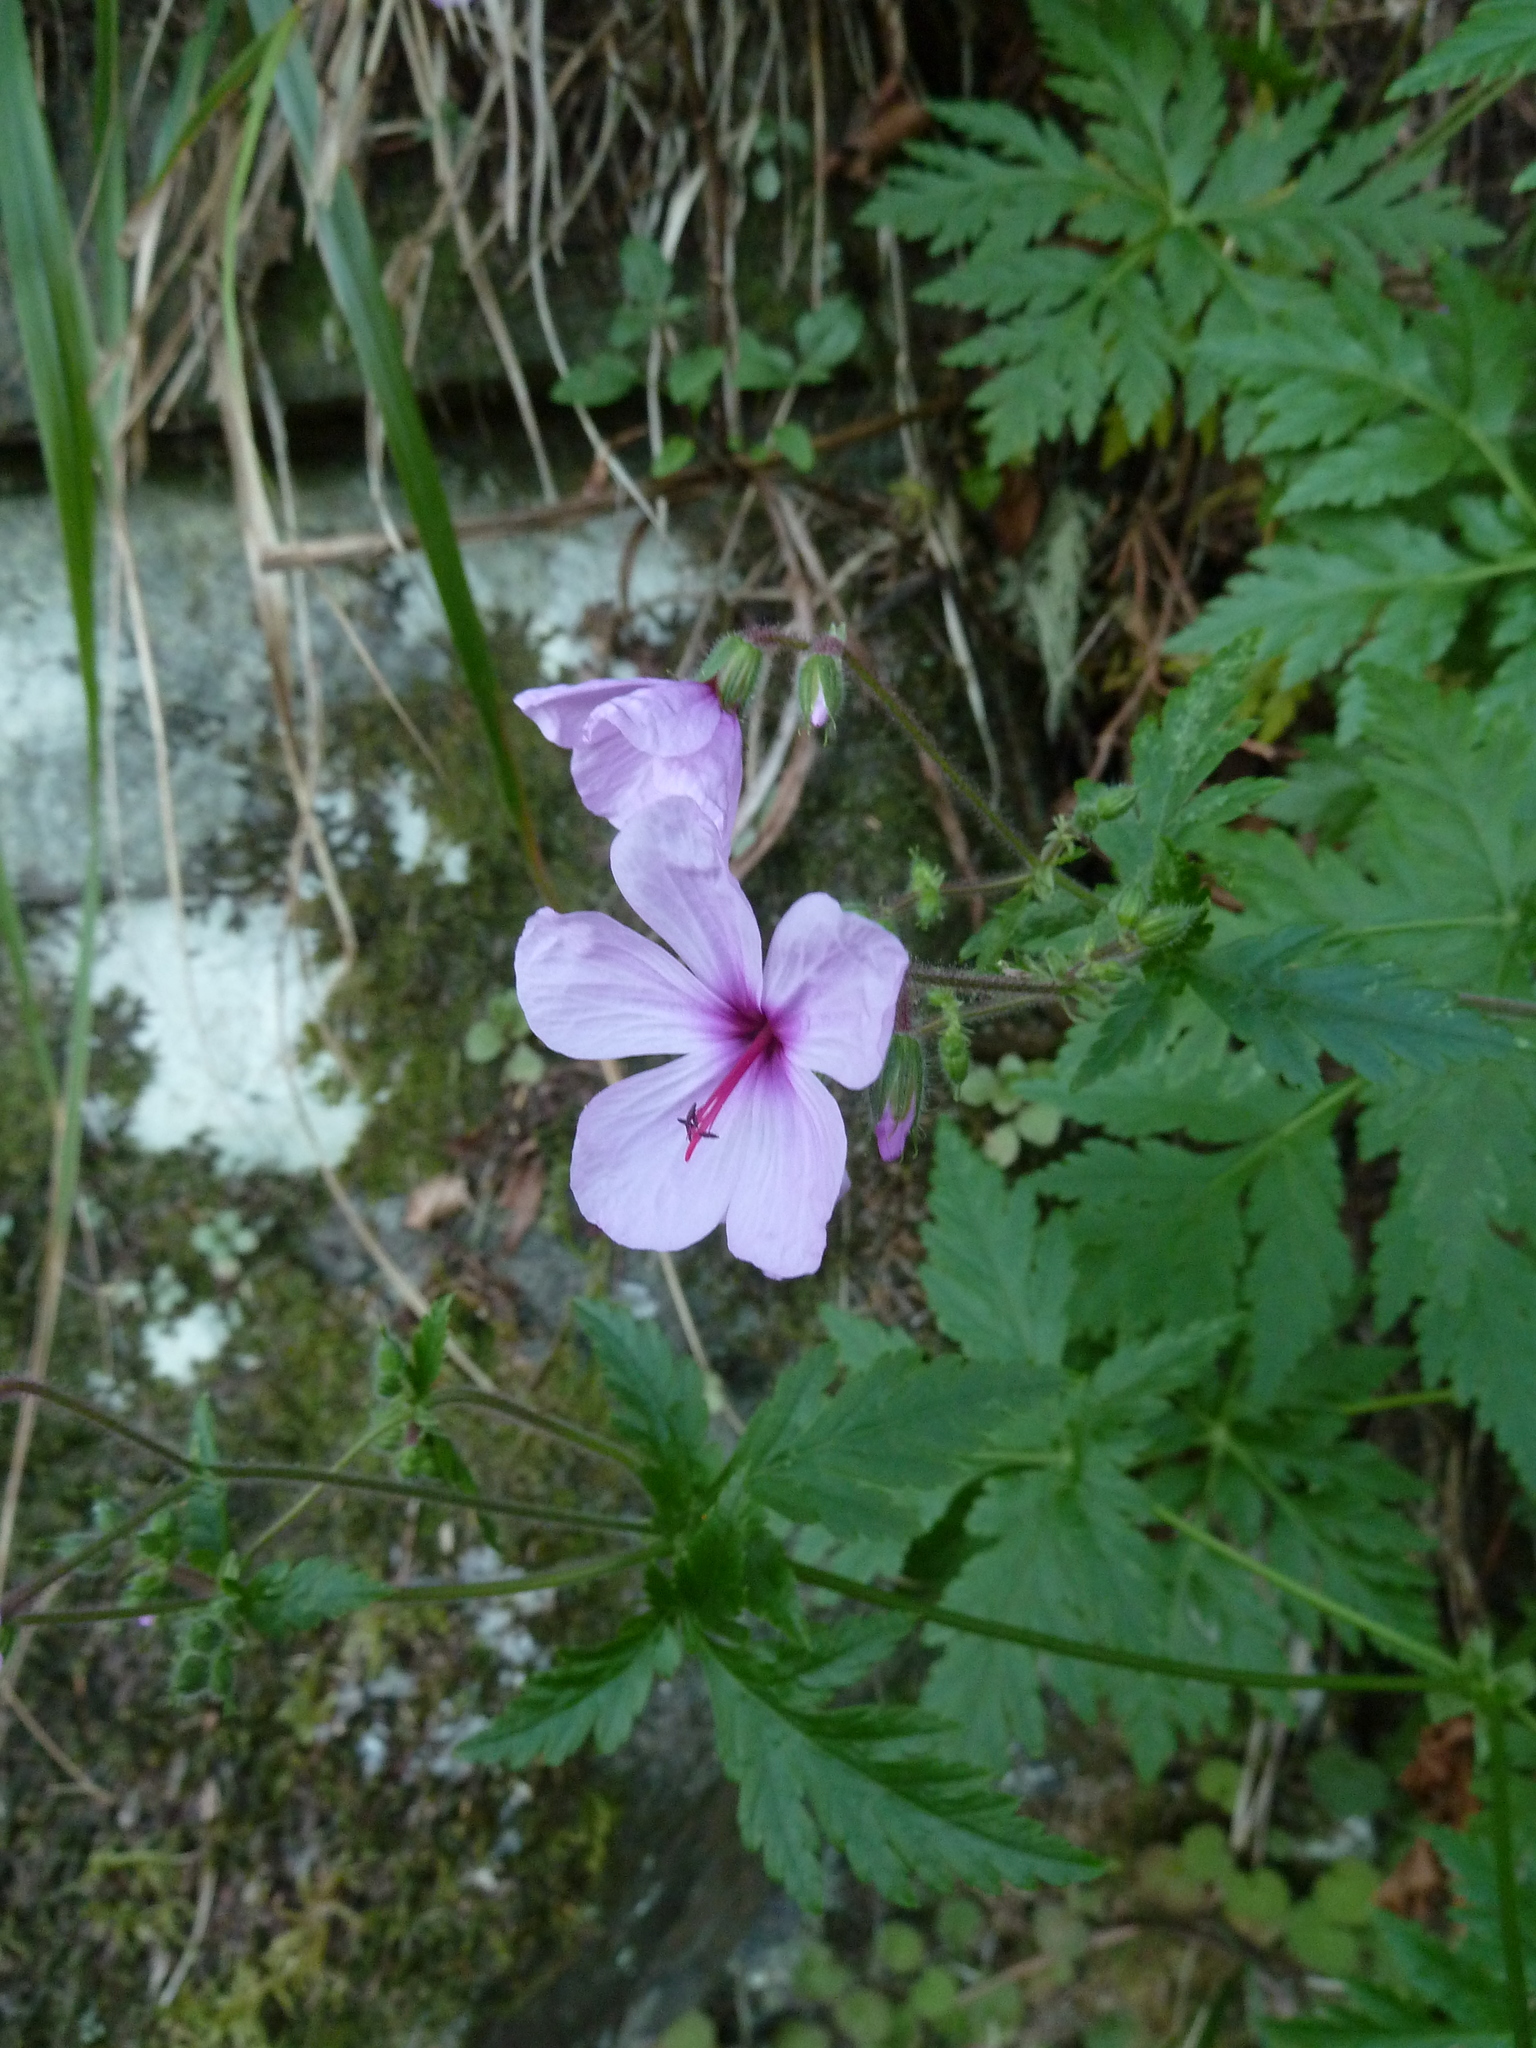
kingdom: Plantae
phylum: Tracheophyta
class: Magnoliopsida
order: Geraniales
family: Geraniaceae
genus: Geranium
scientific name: Geranium palmatum
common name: Canary island geranium
